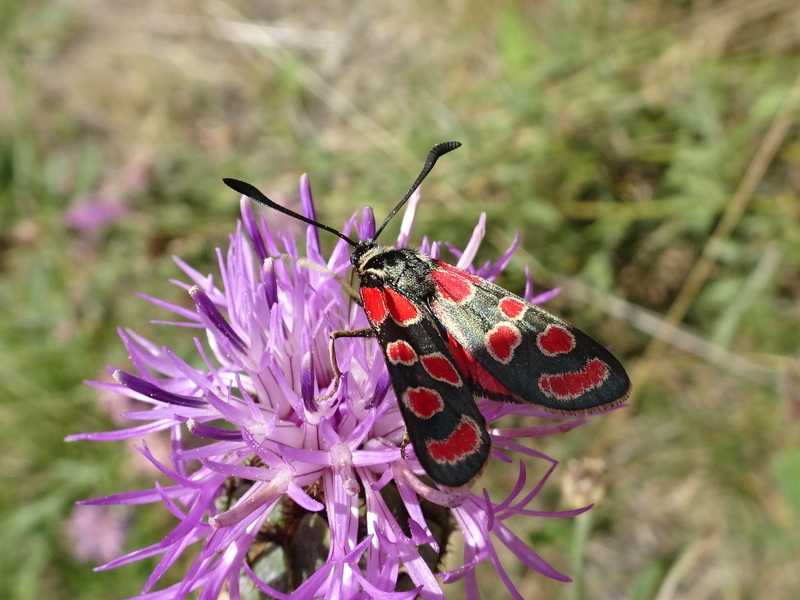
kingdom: Animalia
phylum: Arthropoda
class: Insecta
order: Lepidoptera
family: Zygaenidae
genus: Zygaena
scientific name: Zygaena carniolica
